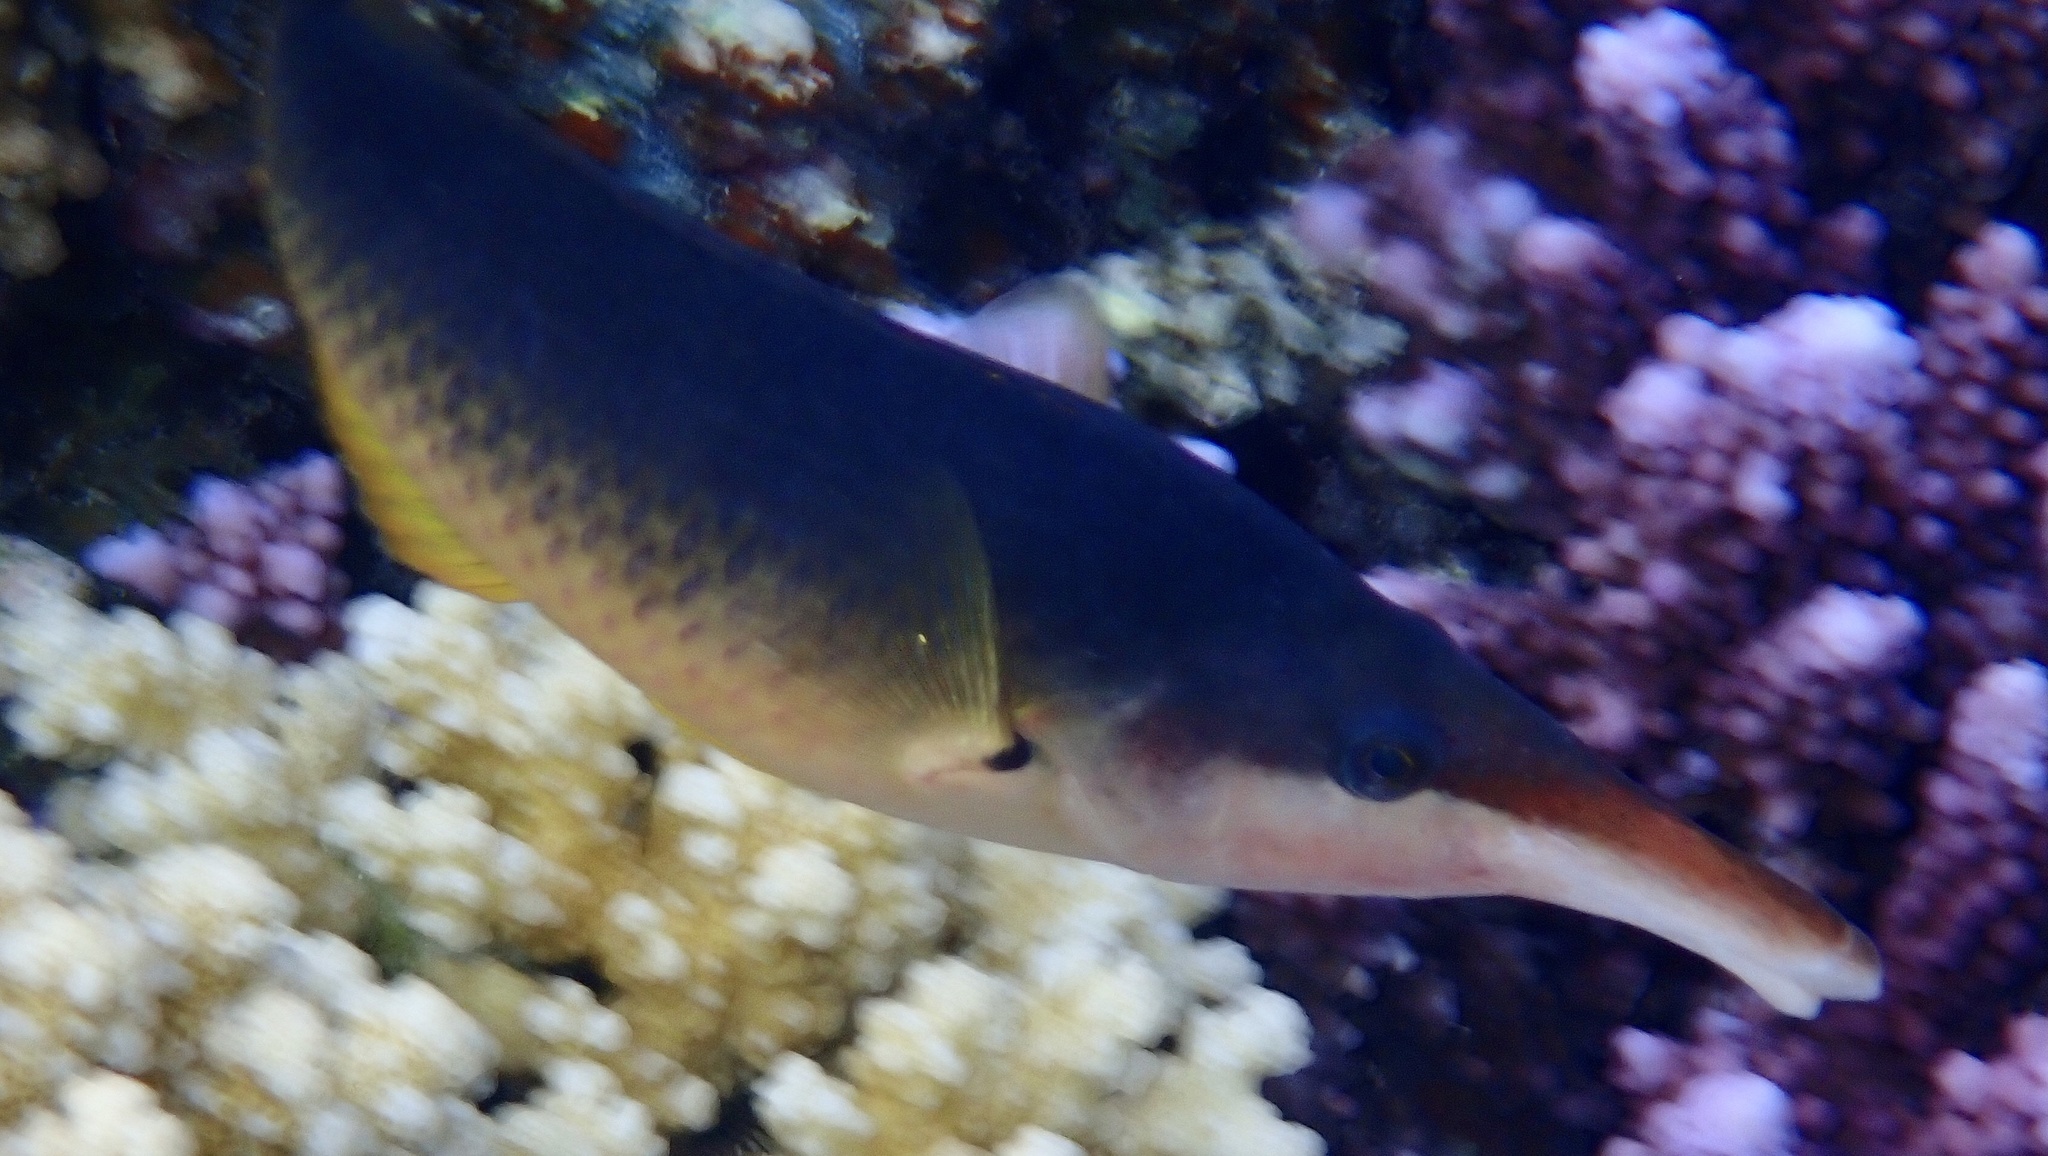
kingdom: Animalia
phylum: Chordata
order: Perciformes
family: Labridae
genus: Gomphosus
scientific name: Gomphosus klunzingeri
